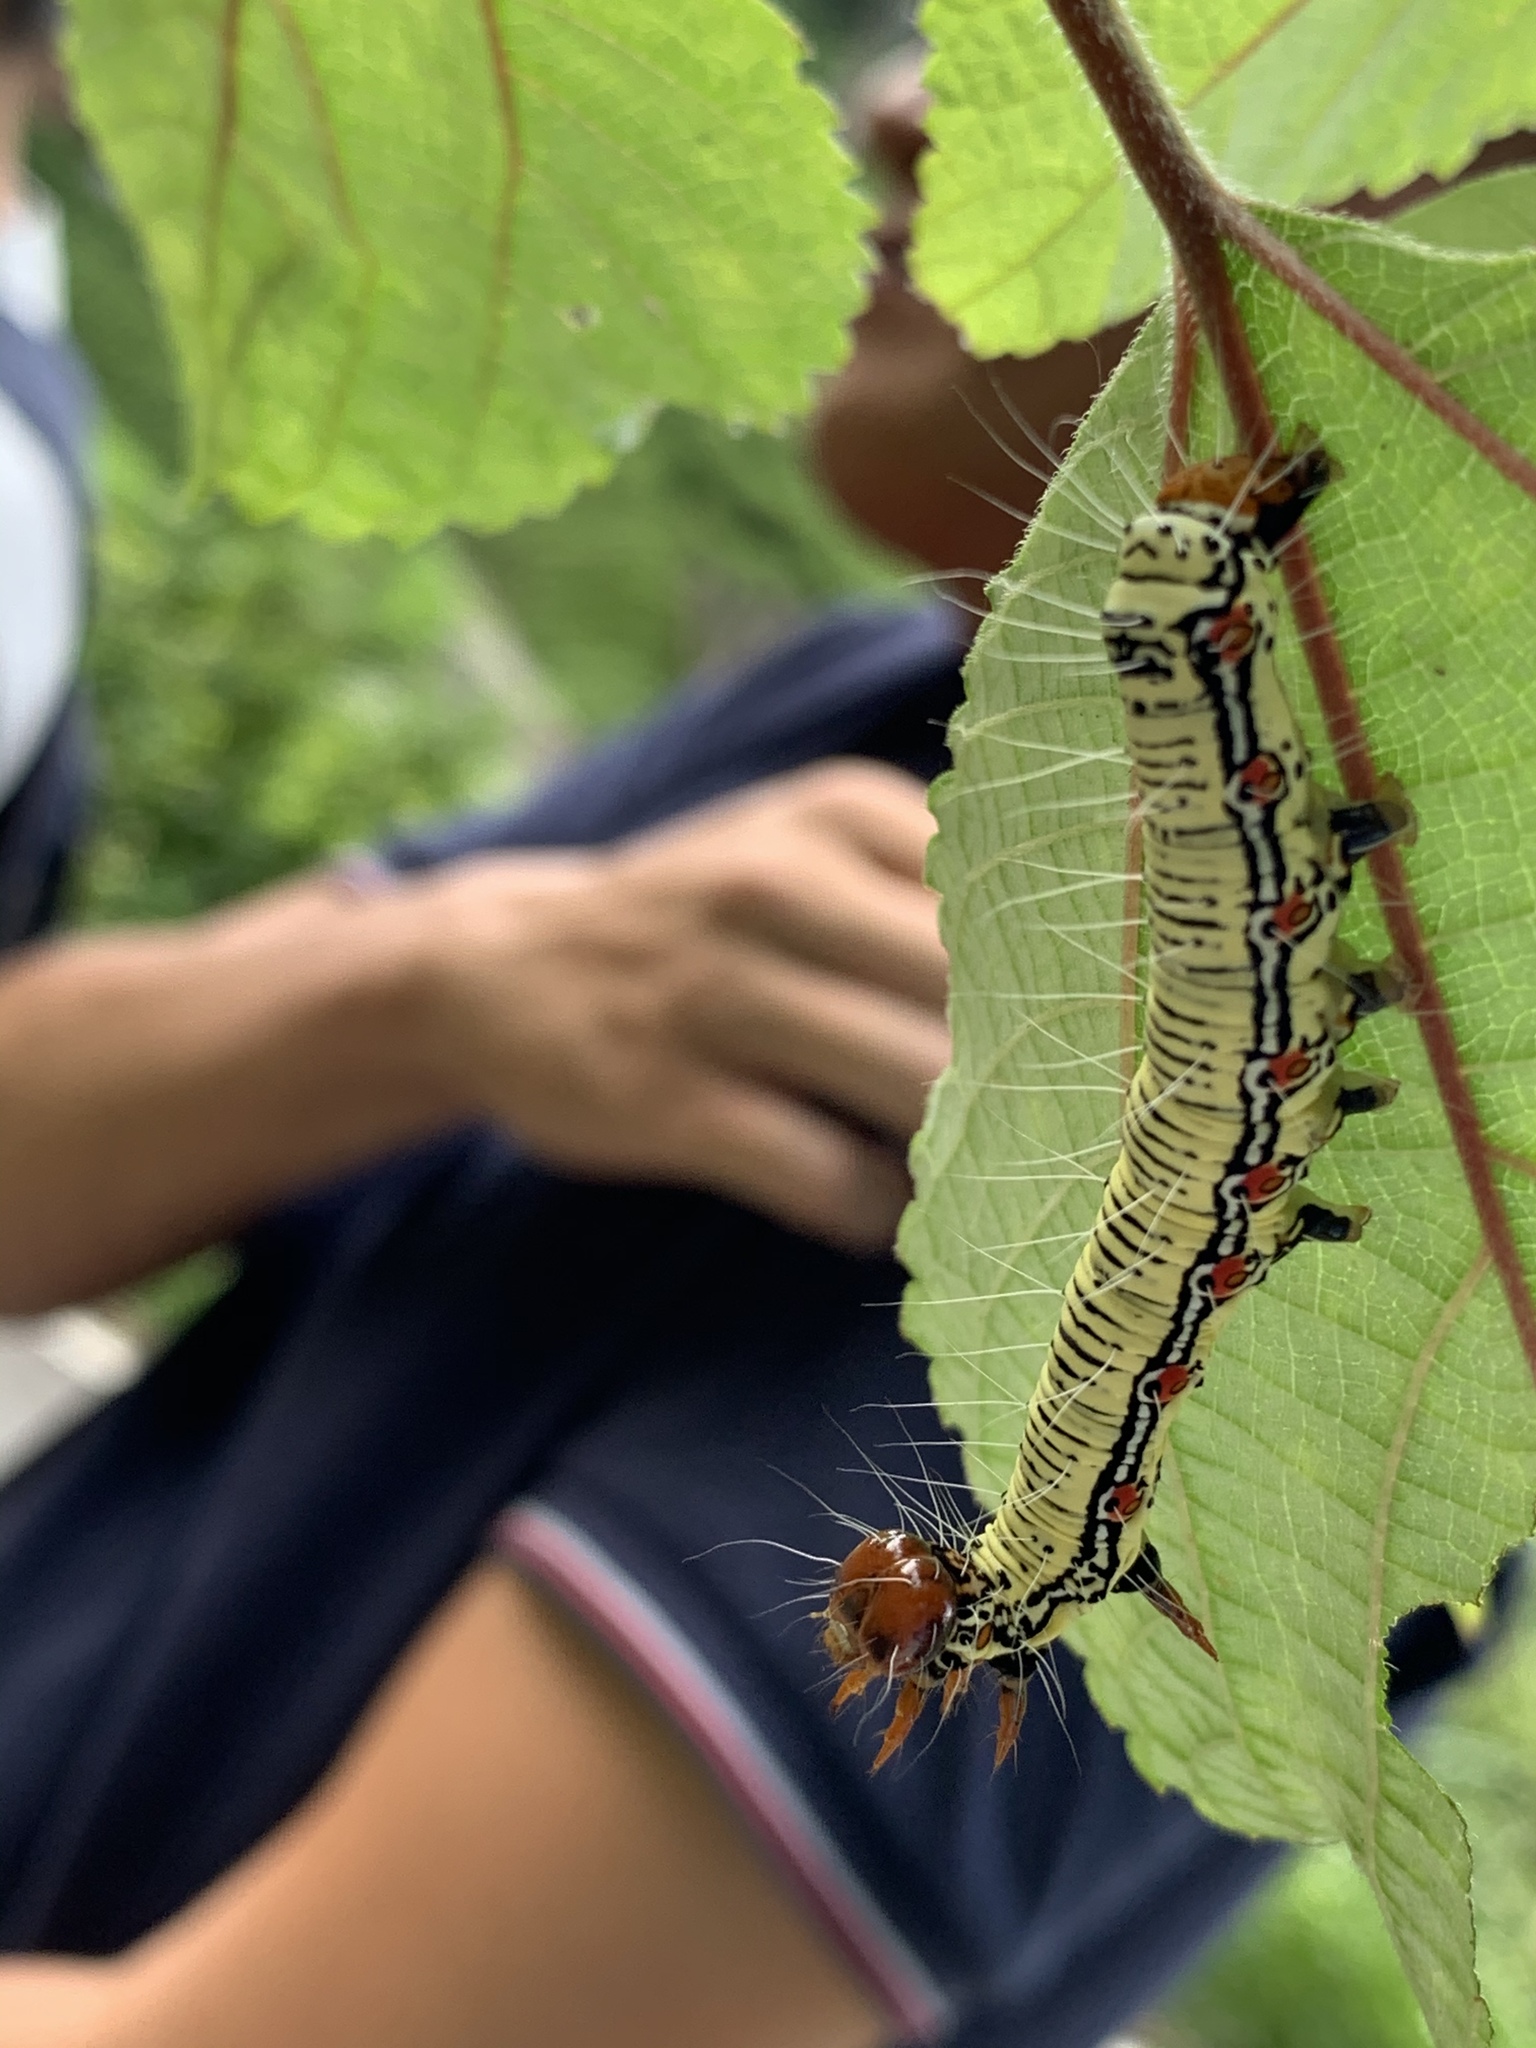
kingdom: Animalia
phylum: Arthropoda
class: Insecta
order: Lepidoptera
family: Erebidae
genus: Arcte
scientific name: Arcte coerula
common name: Ramie moth
